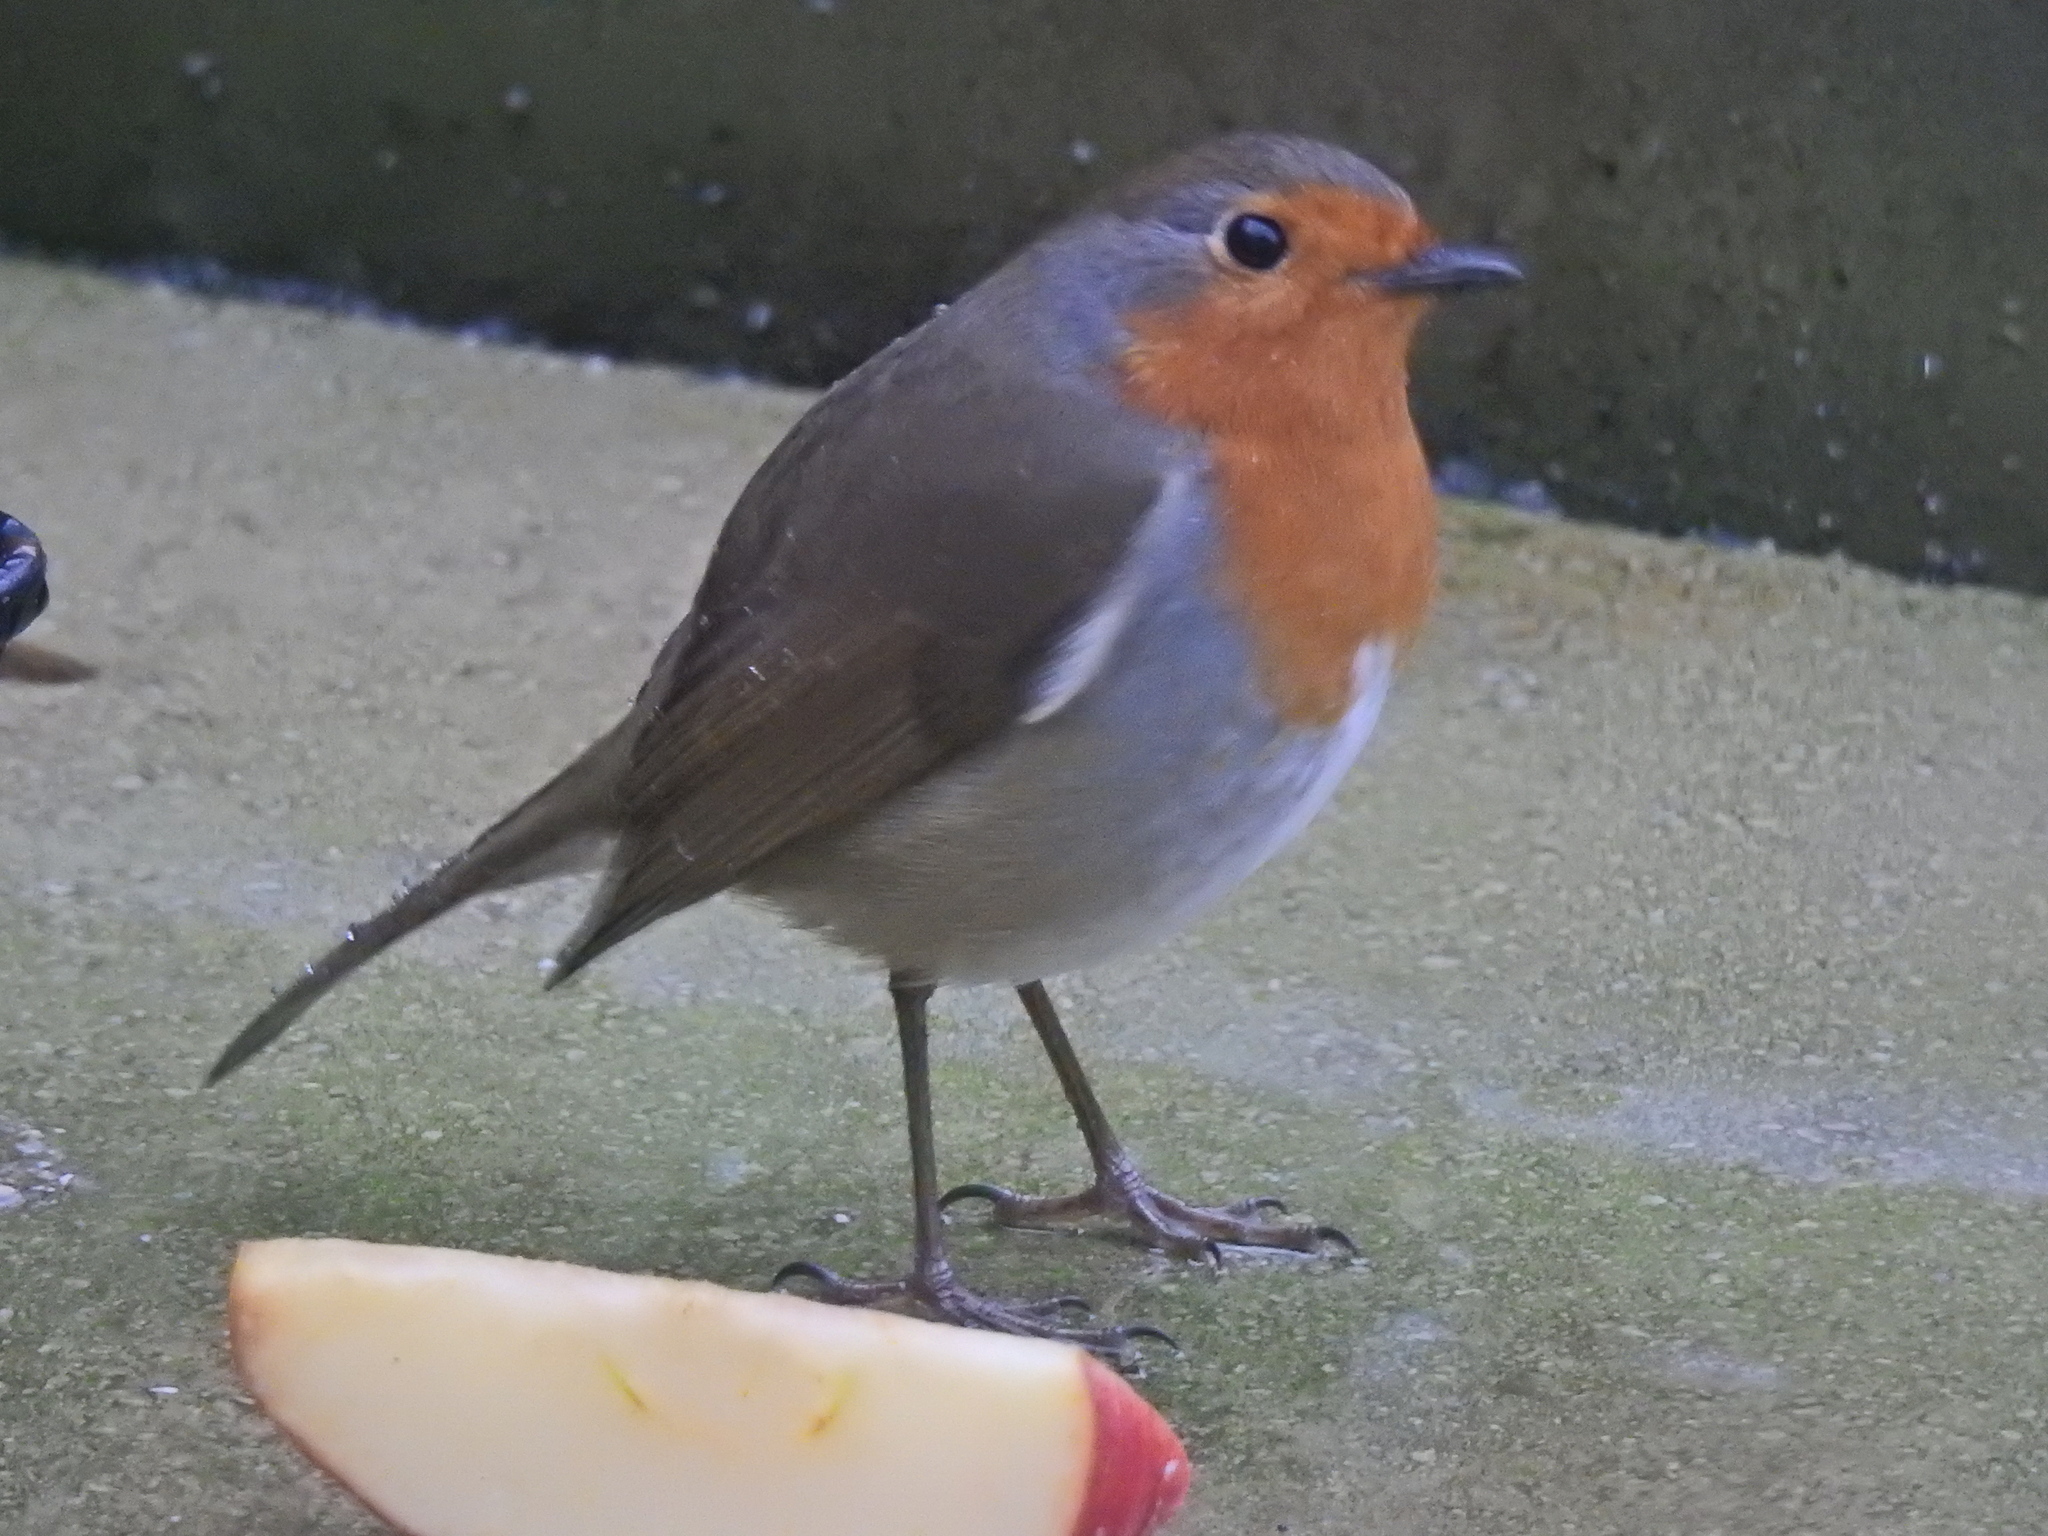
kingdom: Animalia
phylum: Chordata
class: Aves
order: Passeriformes
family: Muscicapidae
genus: Erithacus
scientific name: Erithacus rubecula
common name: European robin
